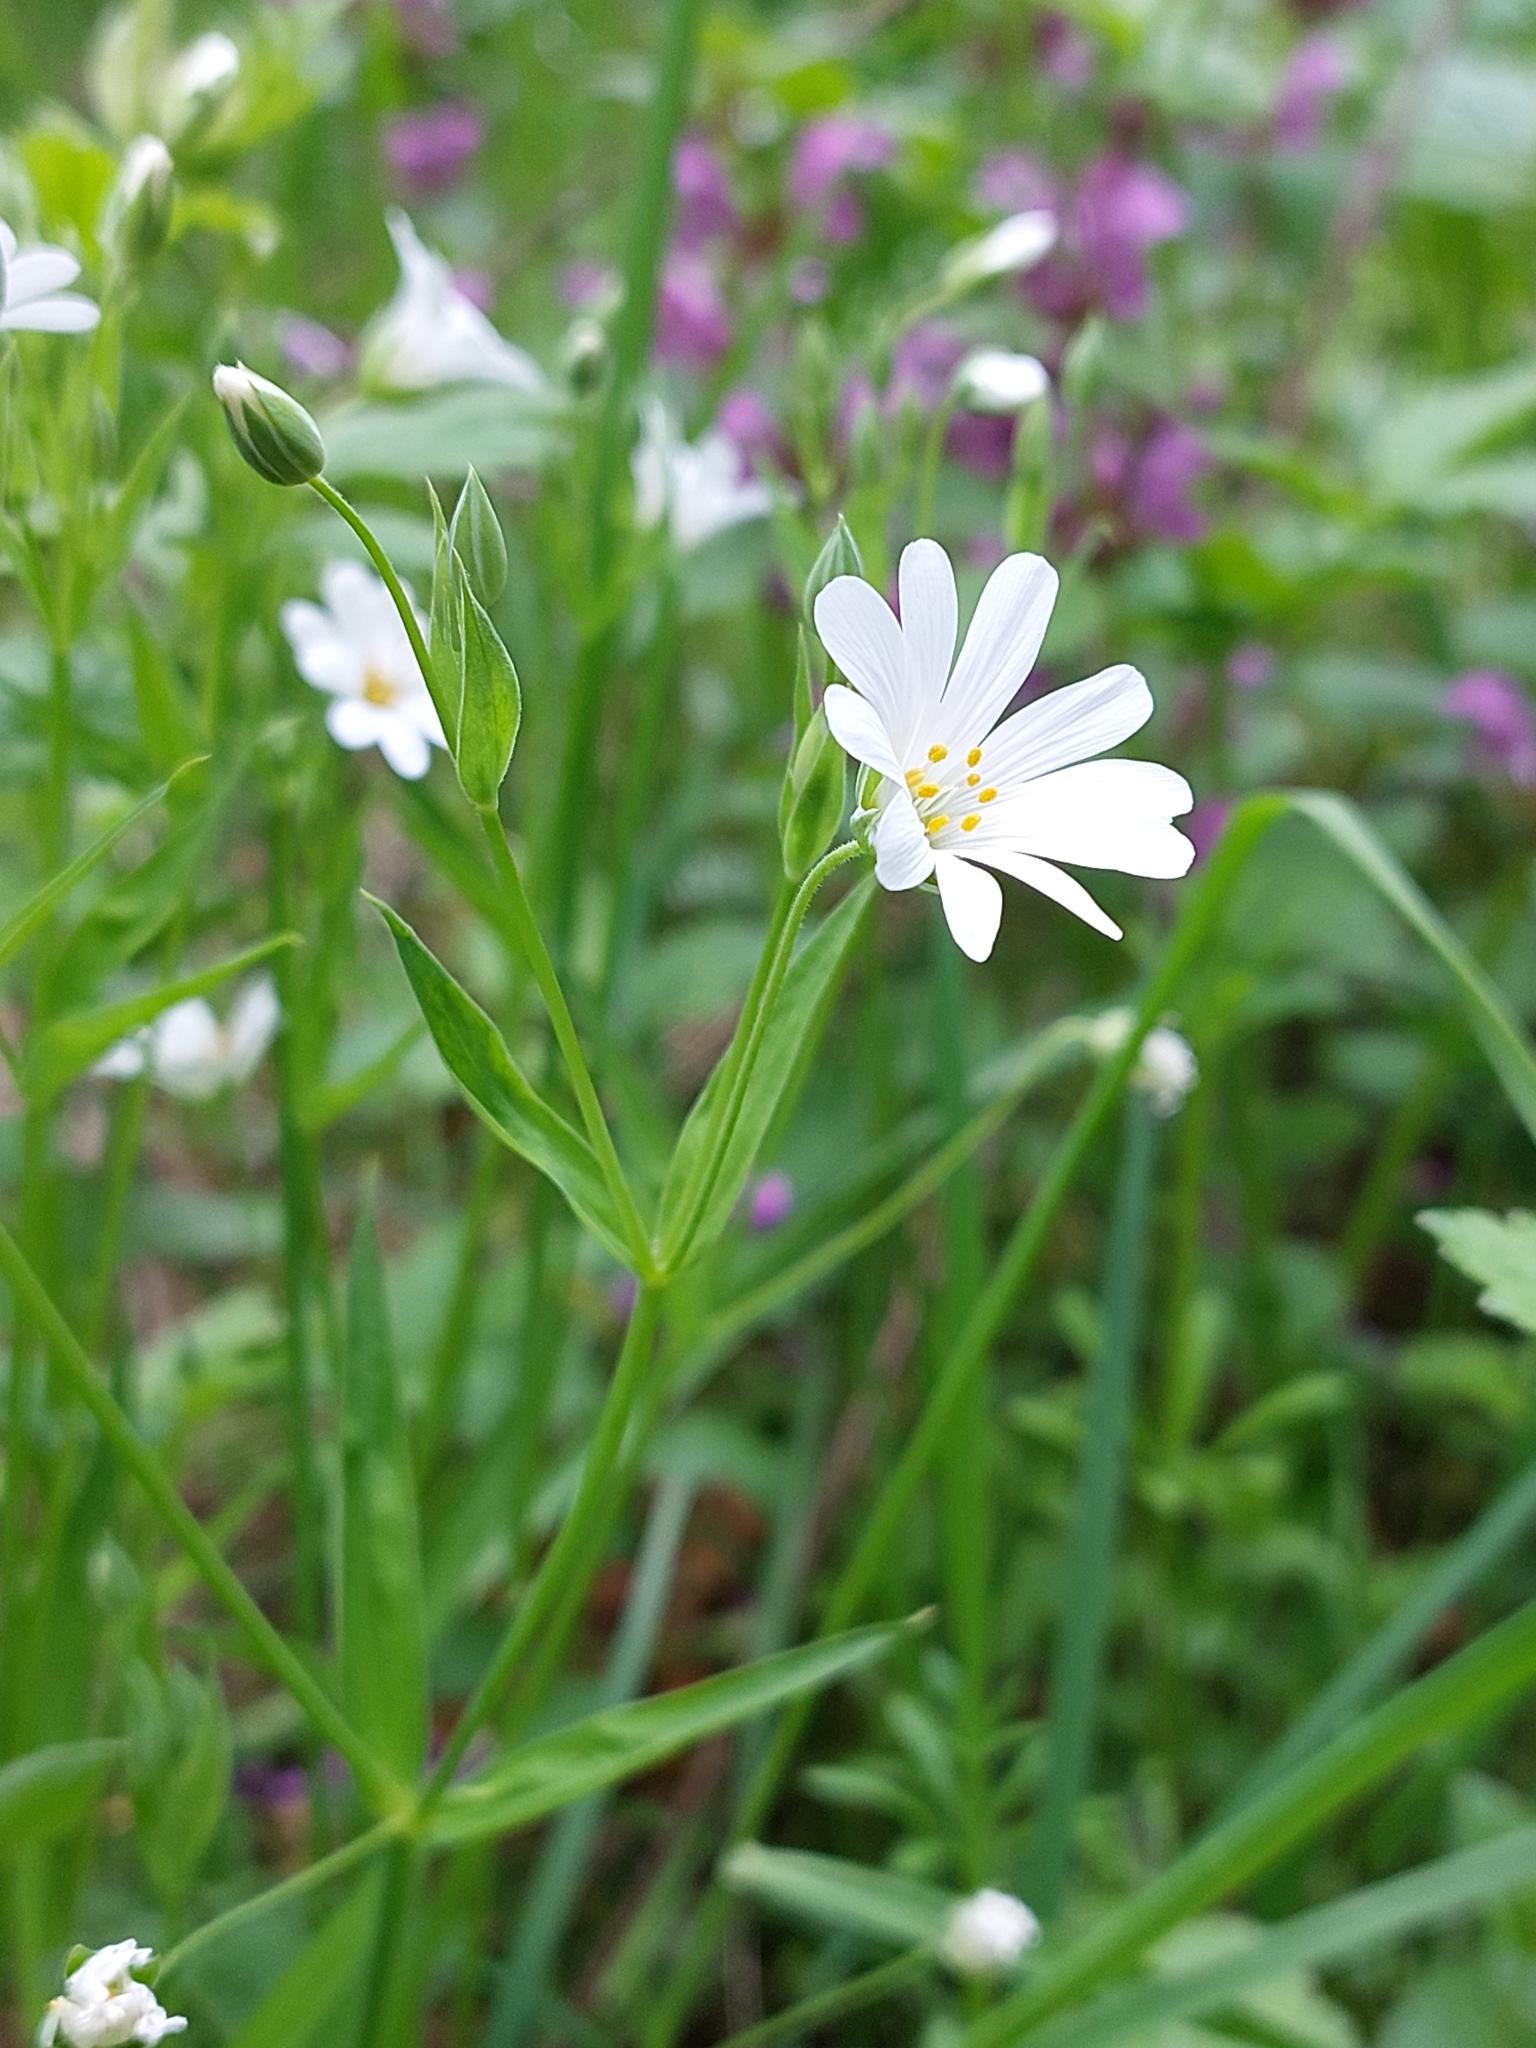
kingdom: Plantae
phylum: Tracheophyta
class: Magnoliopsida
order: Caryophyllales
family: Caryophyllaceae
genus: Rabelera
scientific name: Rabelera holostea
